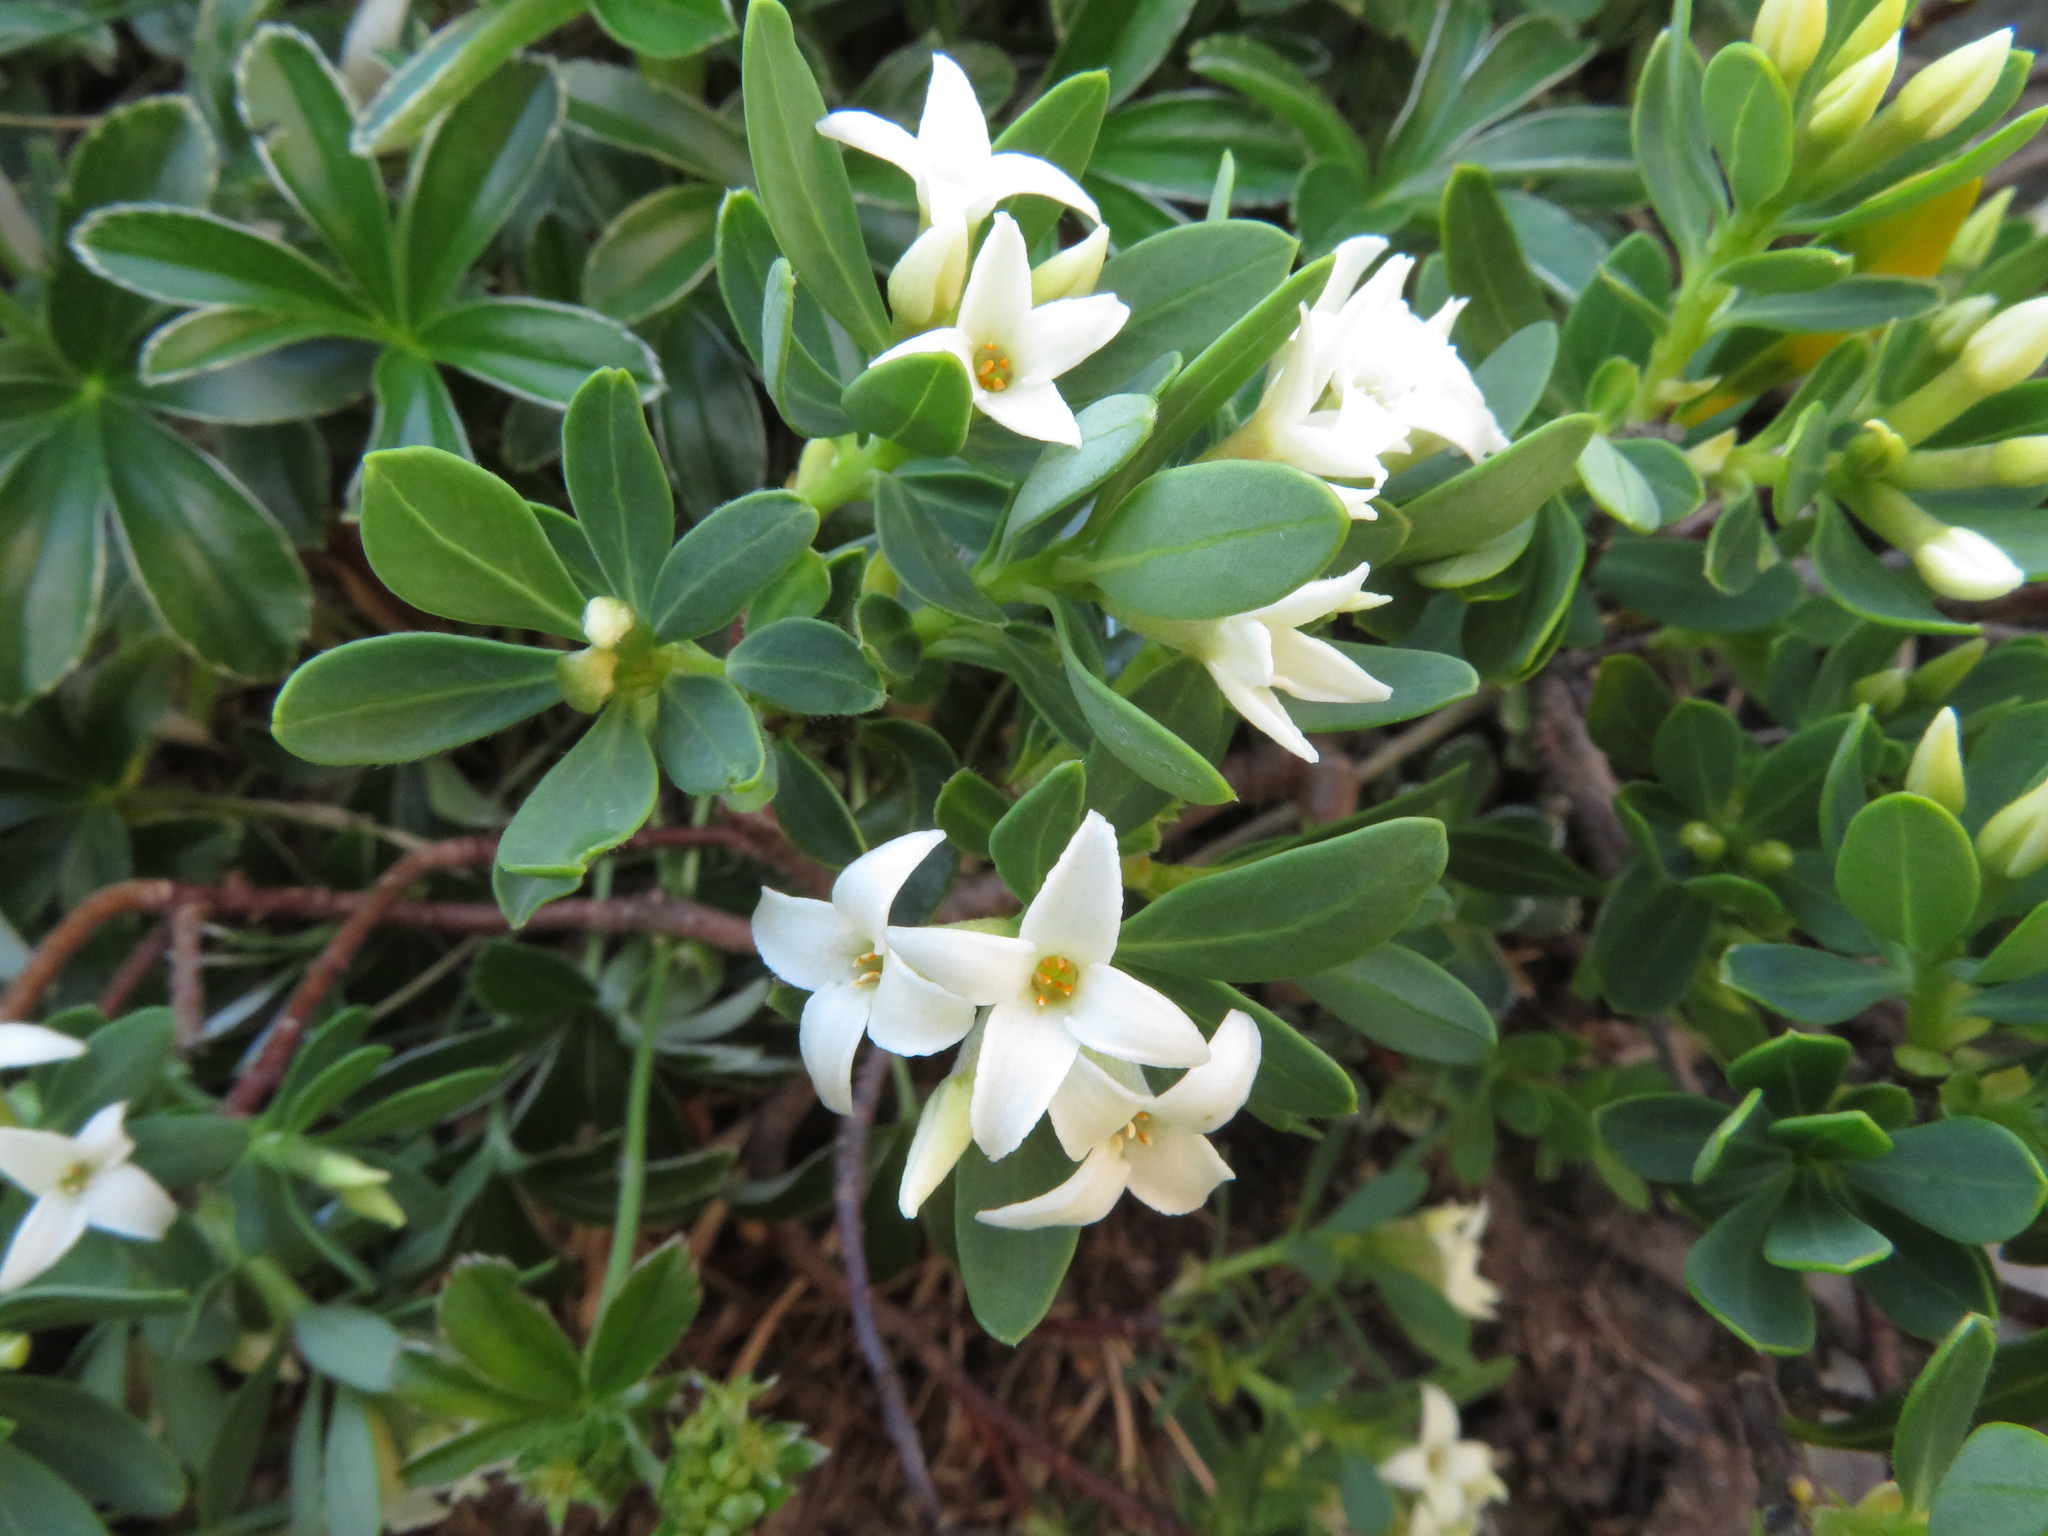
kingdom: Plantae
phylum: Tracheophyta
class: Magnoliopsida
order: Malvales
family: Thymelaeaceae
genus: Daphne
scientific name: Daphne alpina
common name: Alpine daphne
